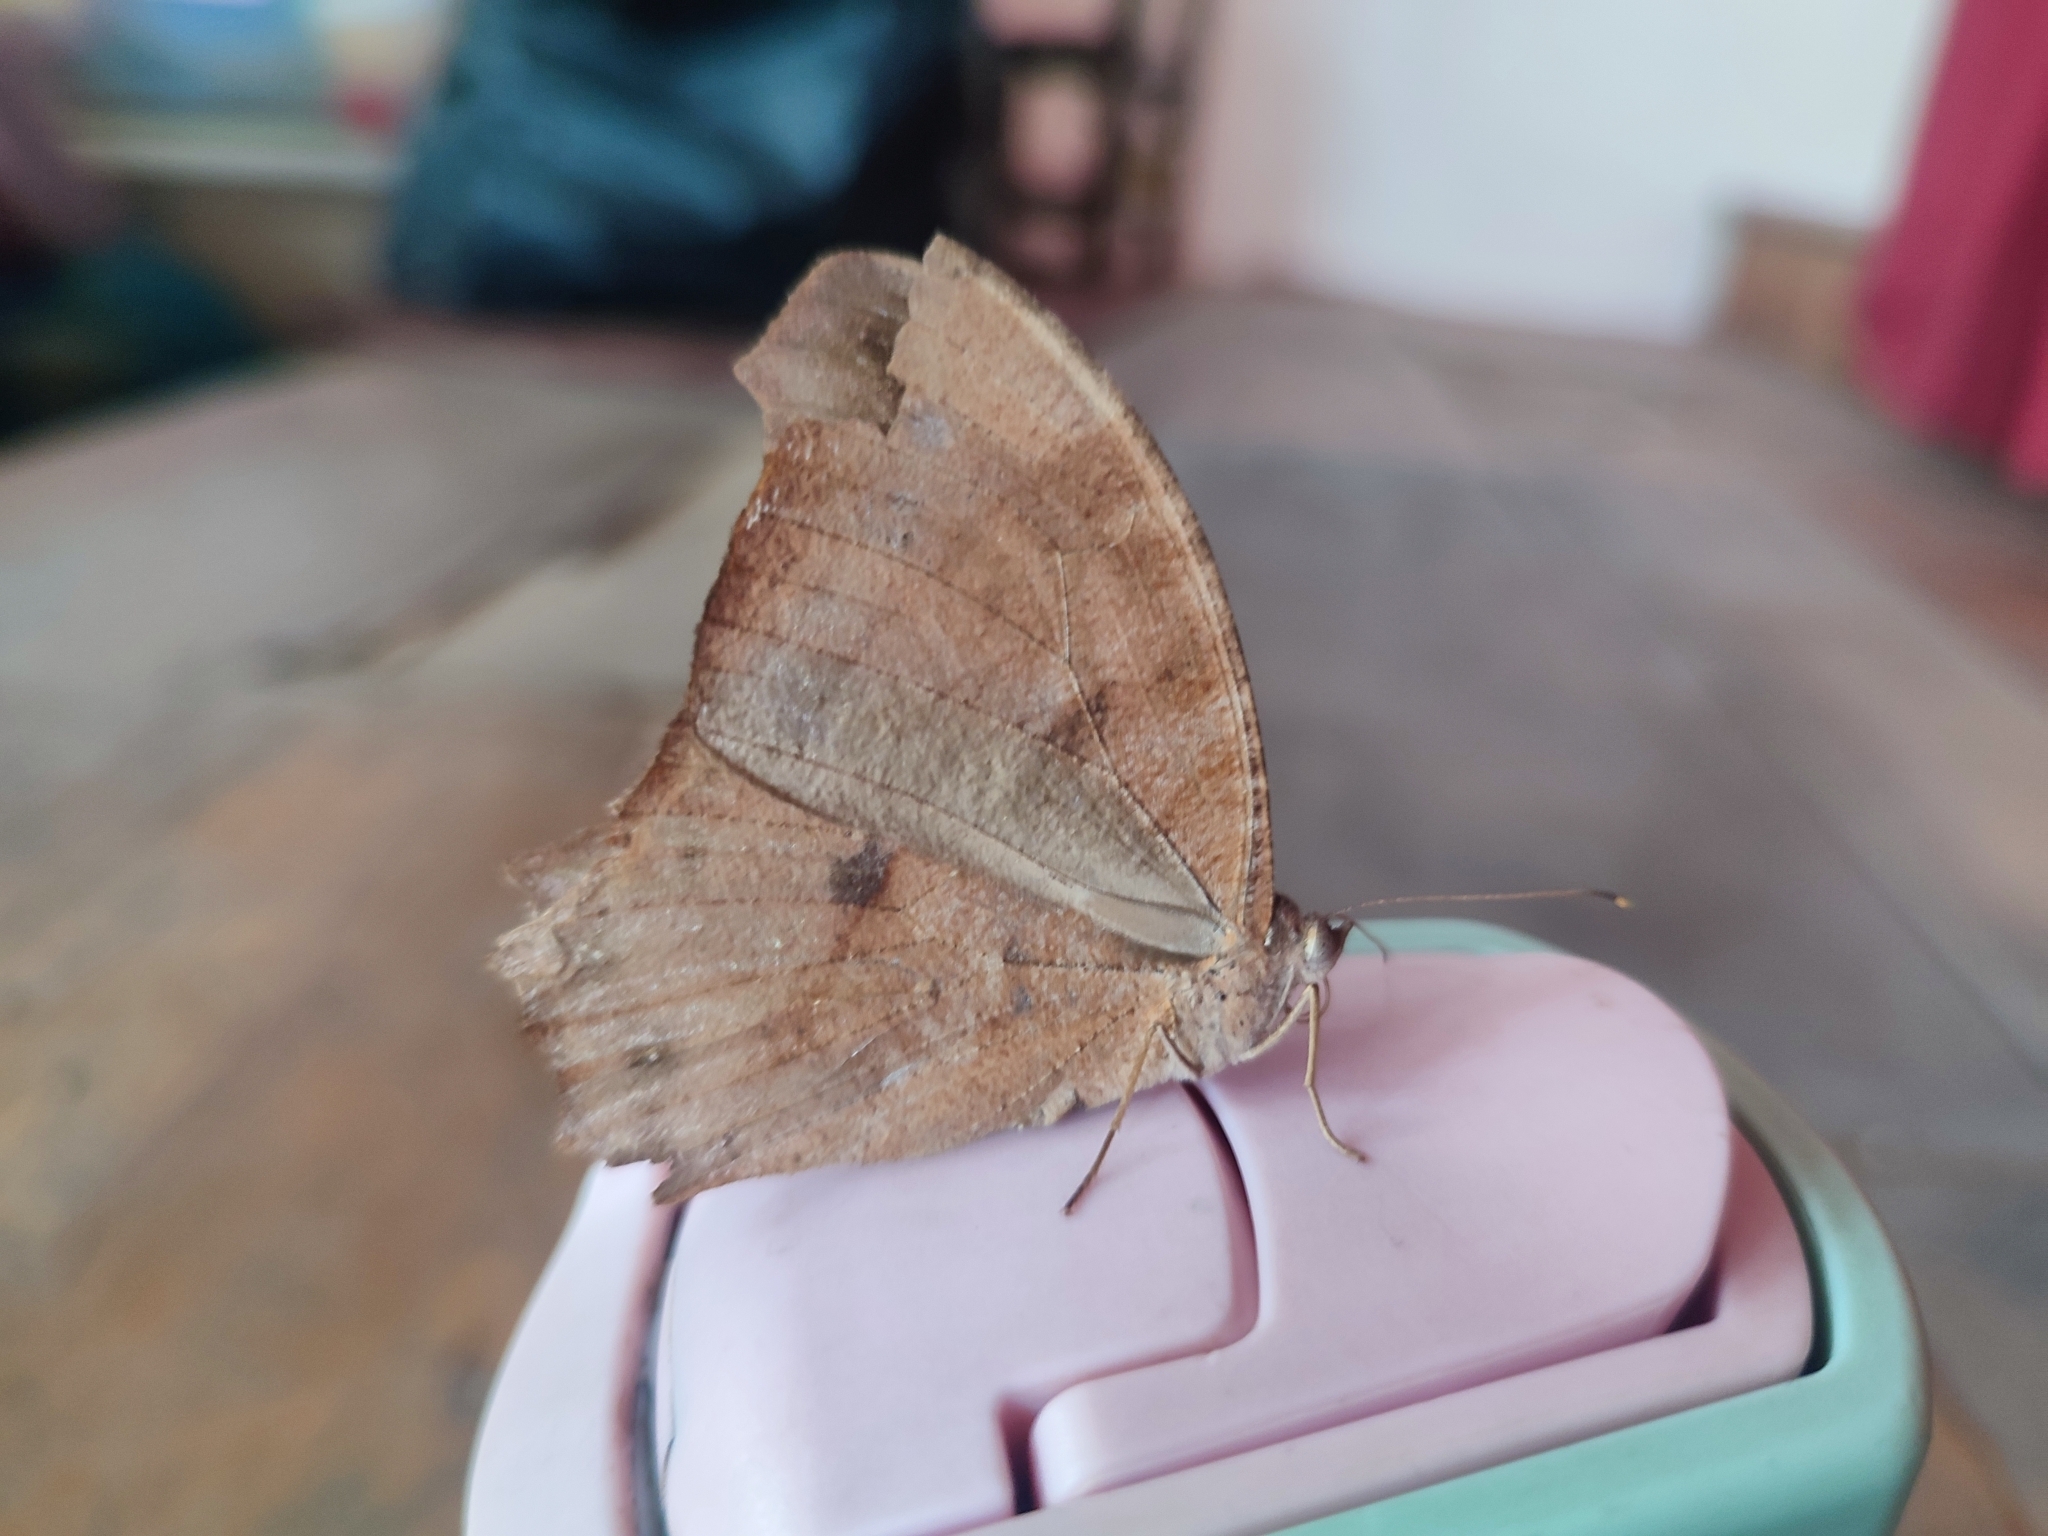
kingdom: Animalia
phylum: Arthropoda
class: Insecta
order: Lepidoptera
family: Nymphalidae
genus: Melanitis
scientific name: Melanitis leda
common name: Twilight brown
